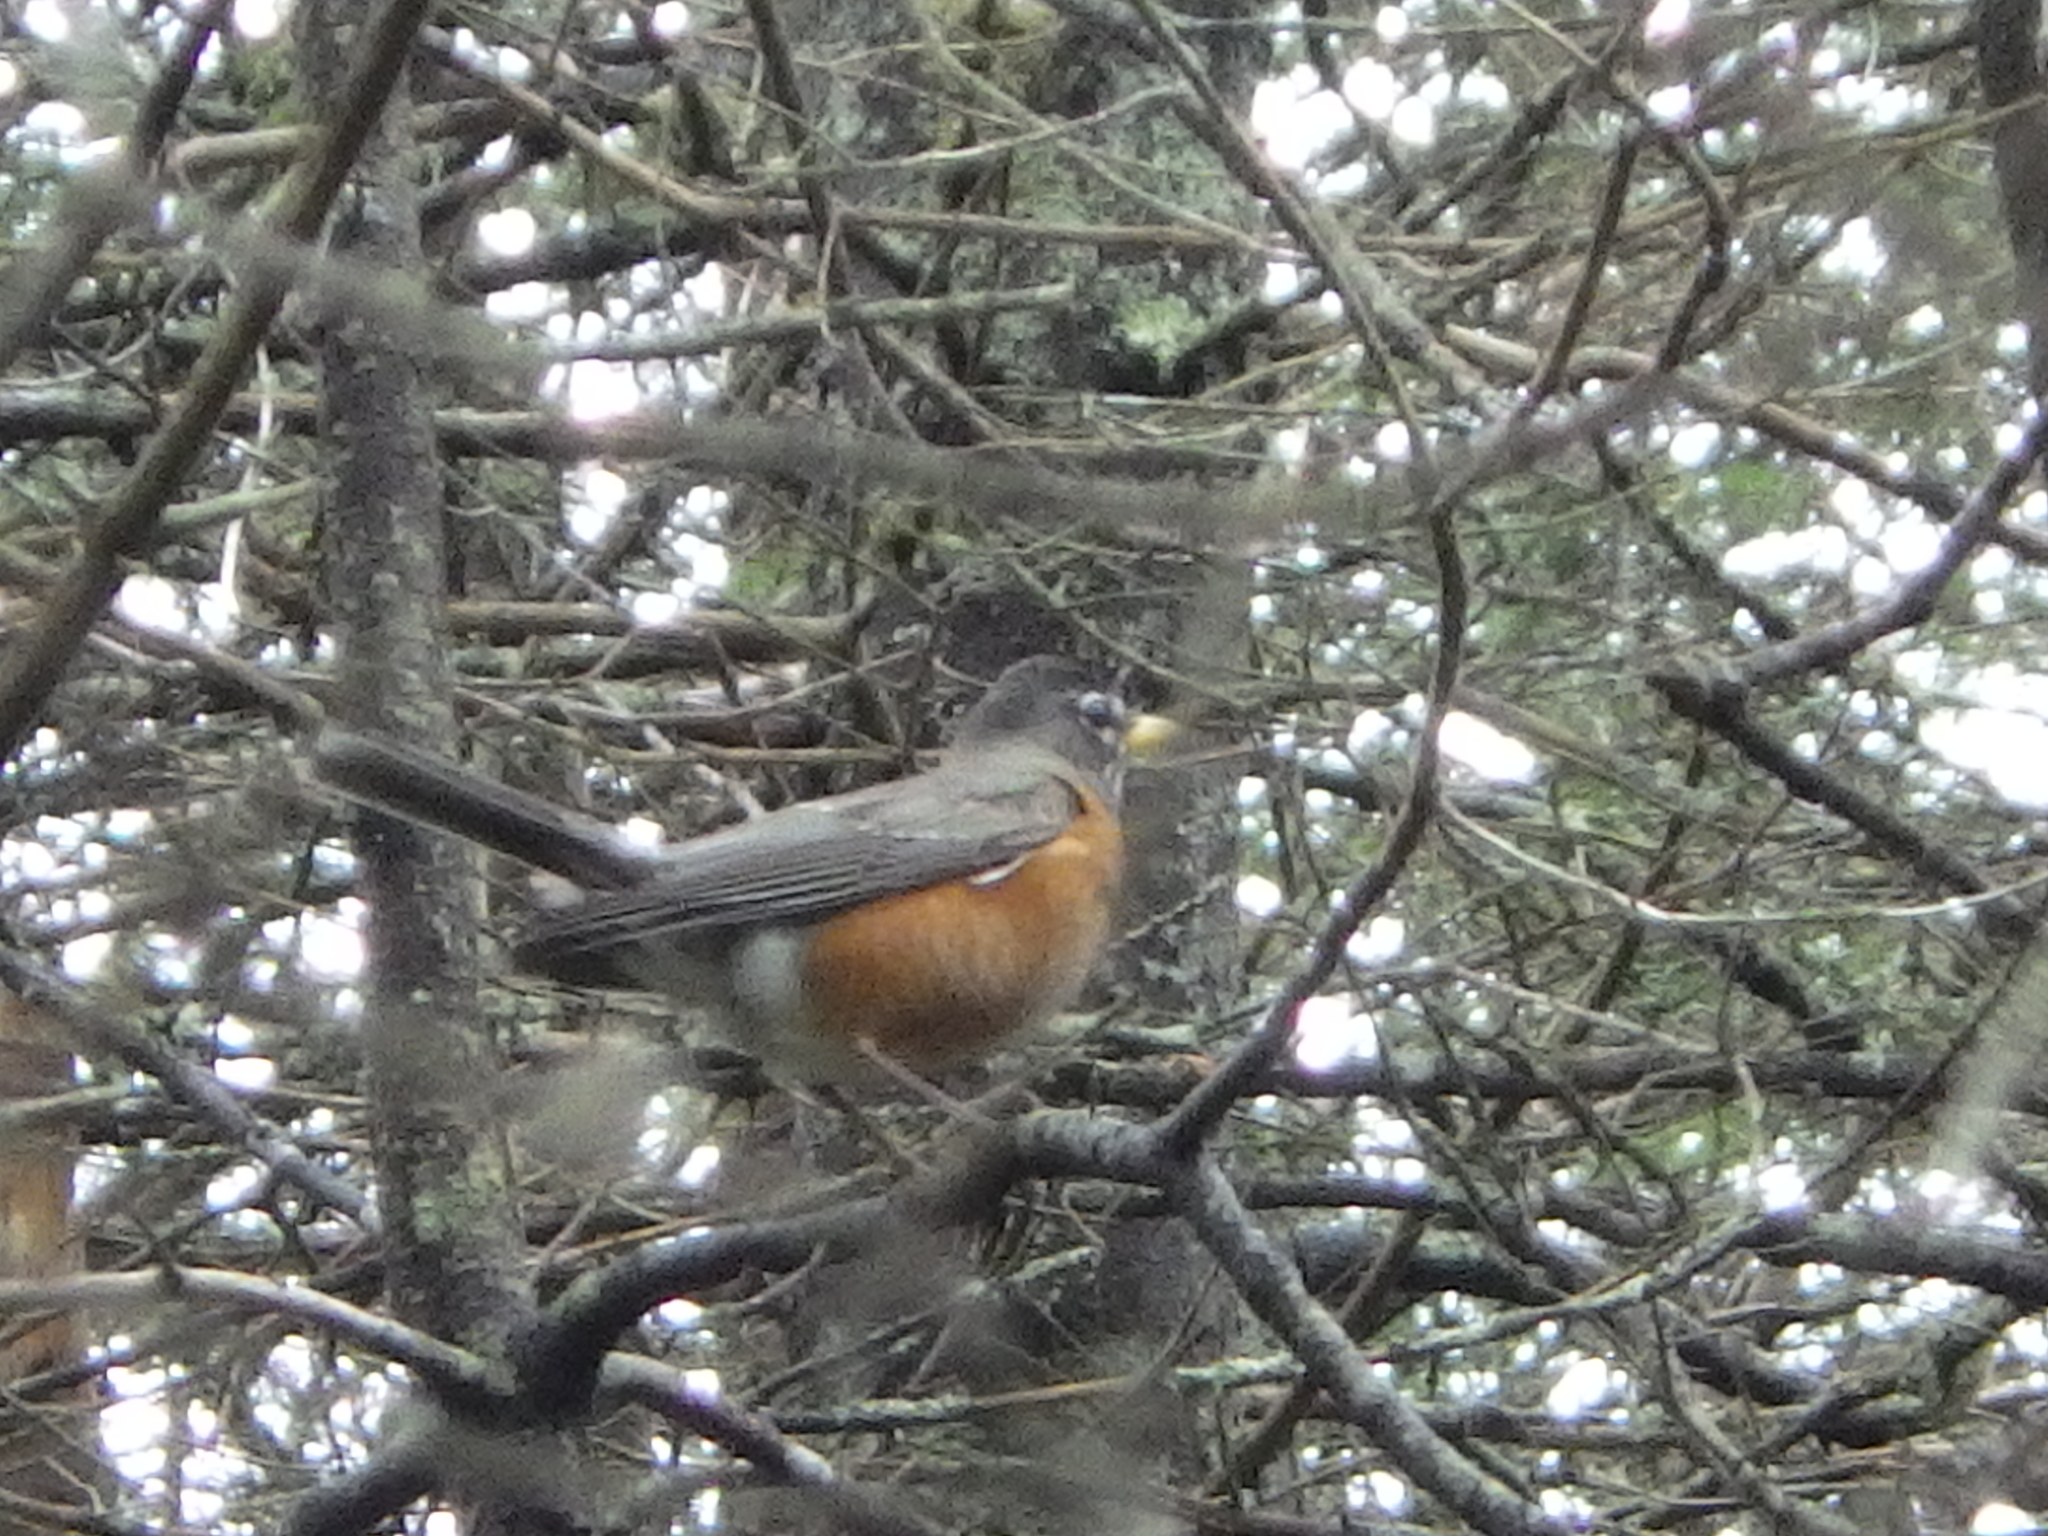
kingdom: Animalia
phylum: Chordata
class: Aves
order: Passeriformes
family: Turdidae
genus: Turdus
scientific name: Turdus migratorius
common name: American robin
